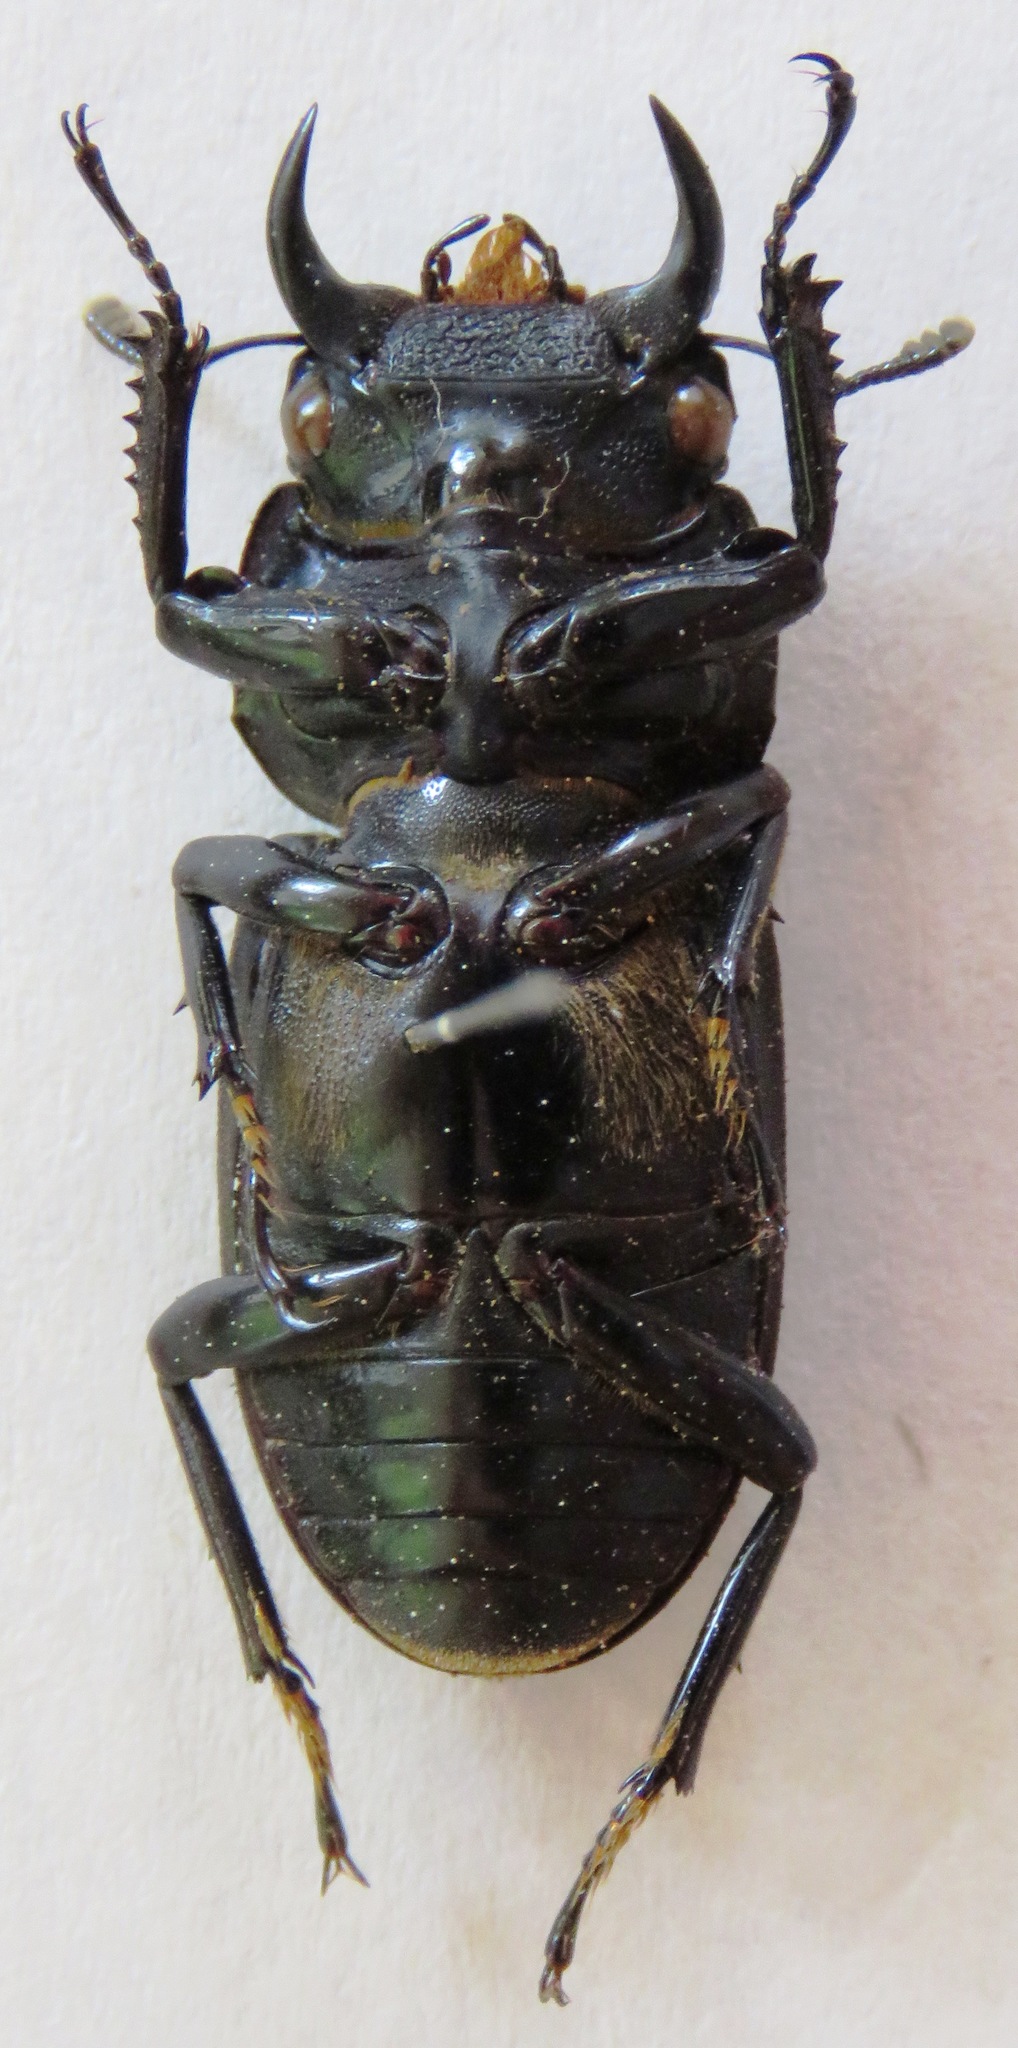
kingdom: Animalia
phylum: Arthropoda
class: Insecta
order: Coleoptera
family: Lucanidae
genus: Dorcus
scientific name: Dorcus yaksha
